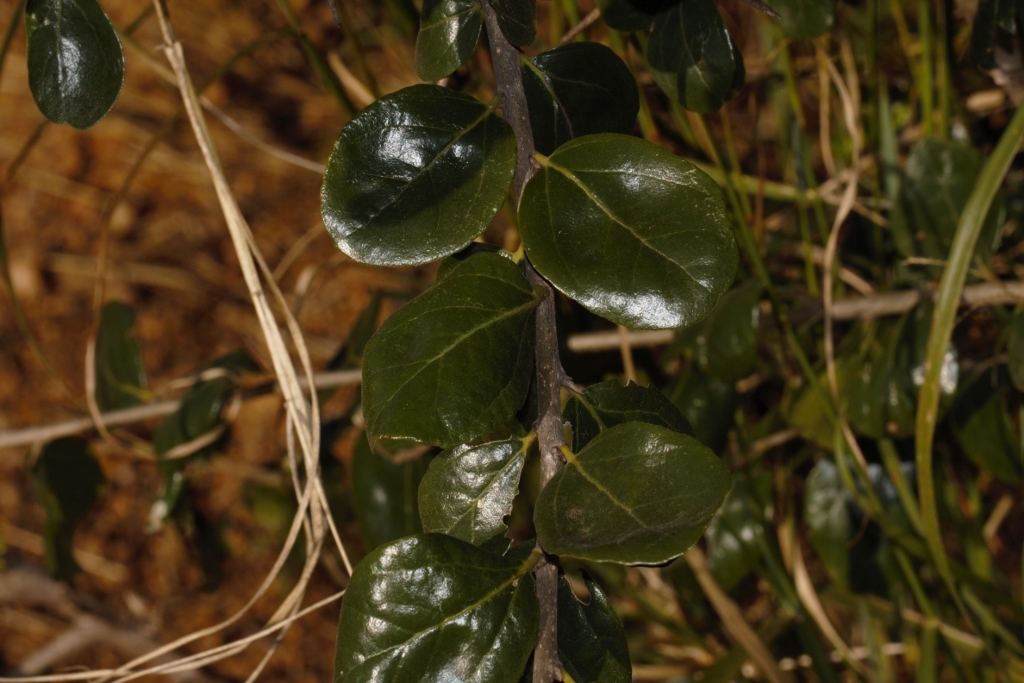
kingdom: Plantae
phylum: Tracheophyta
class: Magnoliopsida
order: Malpighiales
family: Salicaceae
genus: Dovyalis
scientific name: Dovyalis zeyheri
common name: Apricot sourberry
